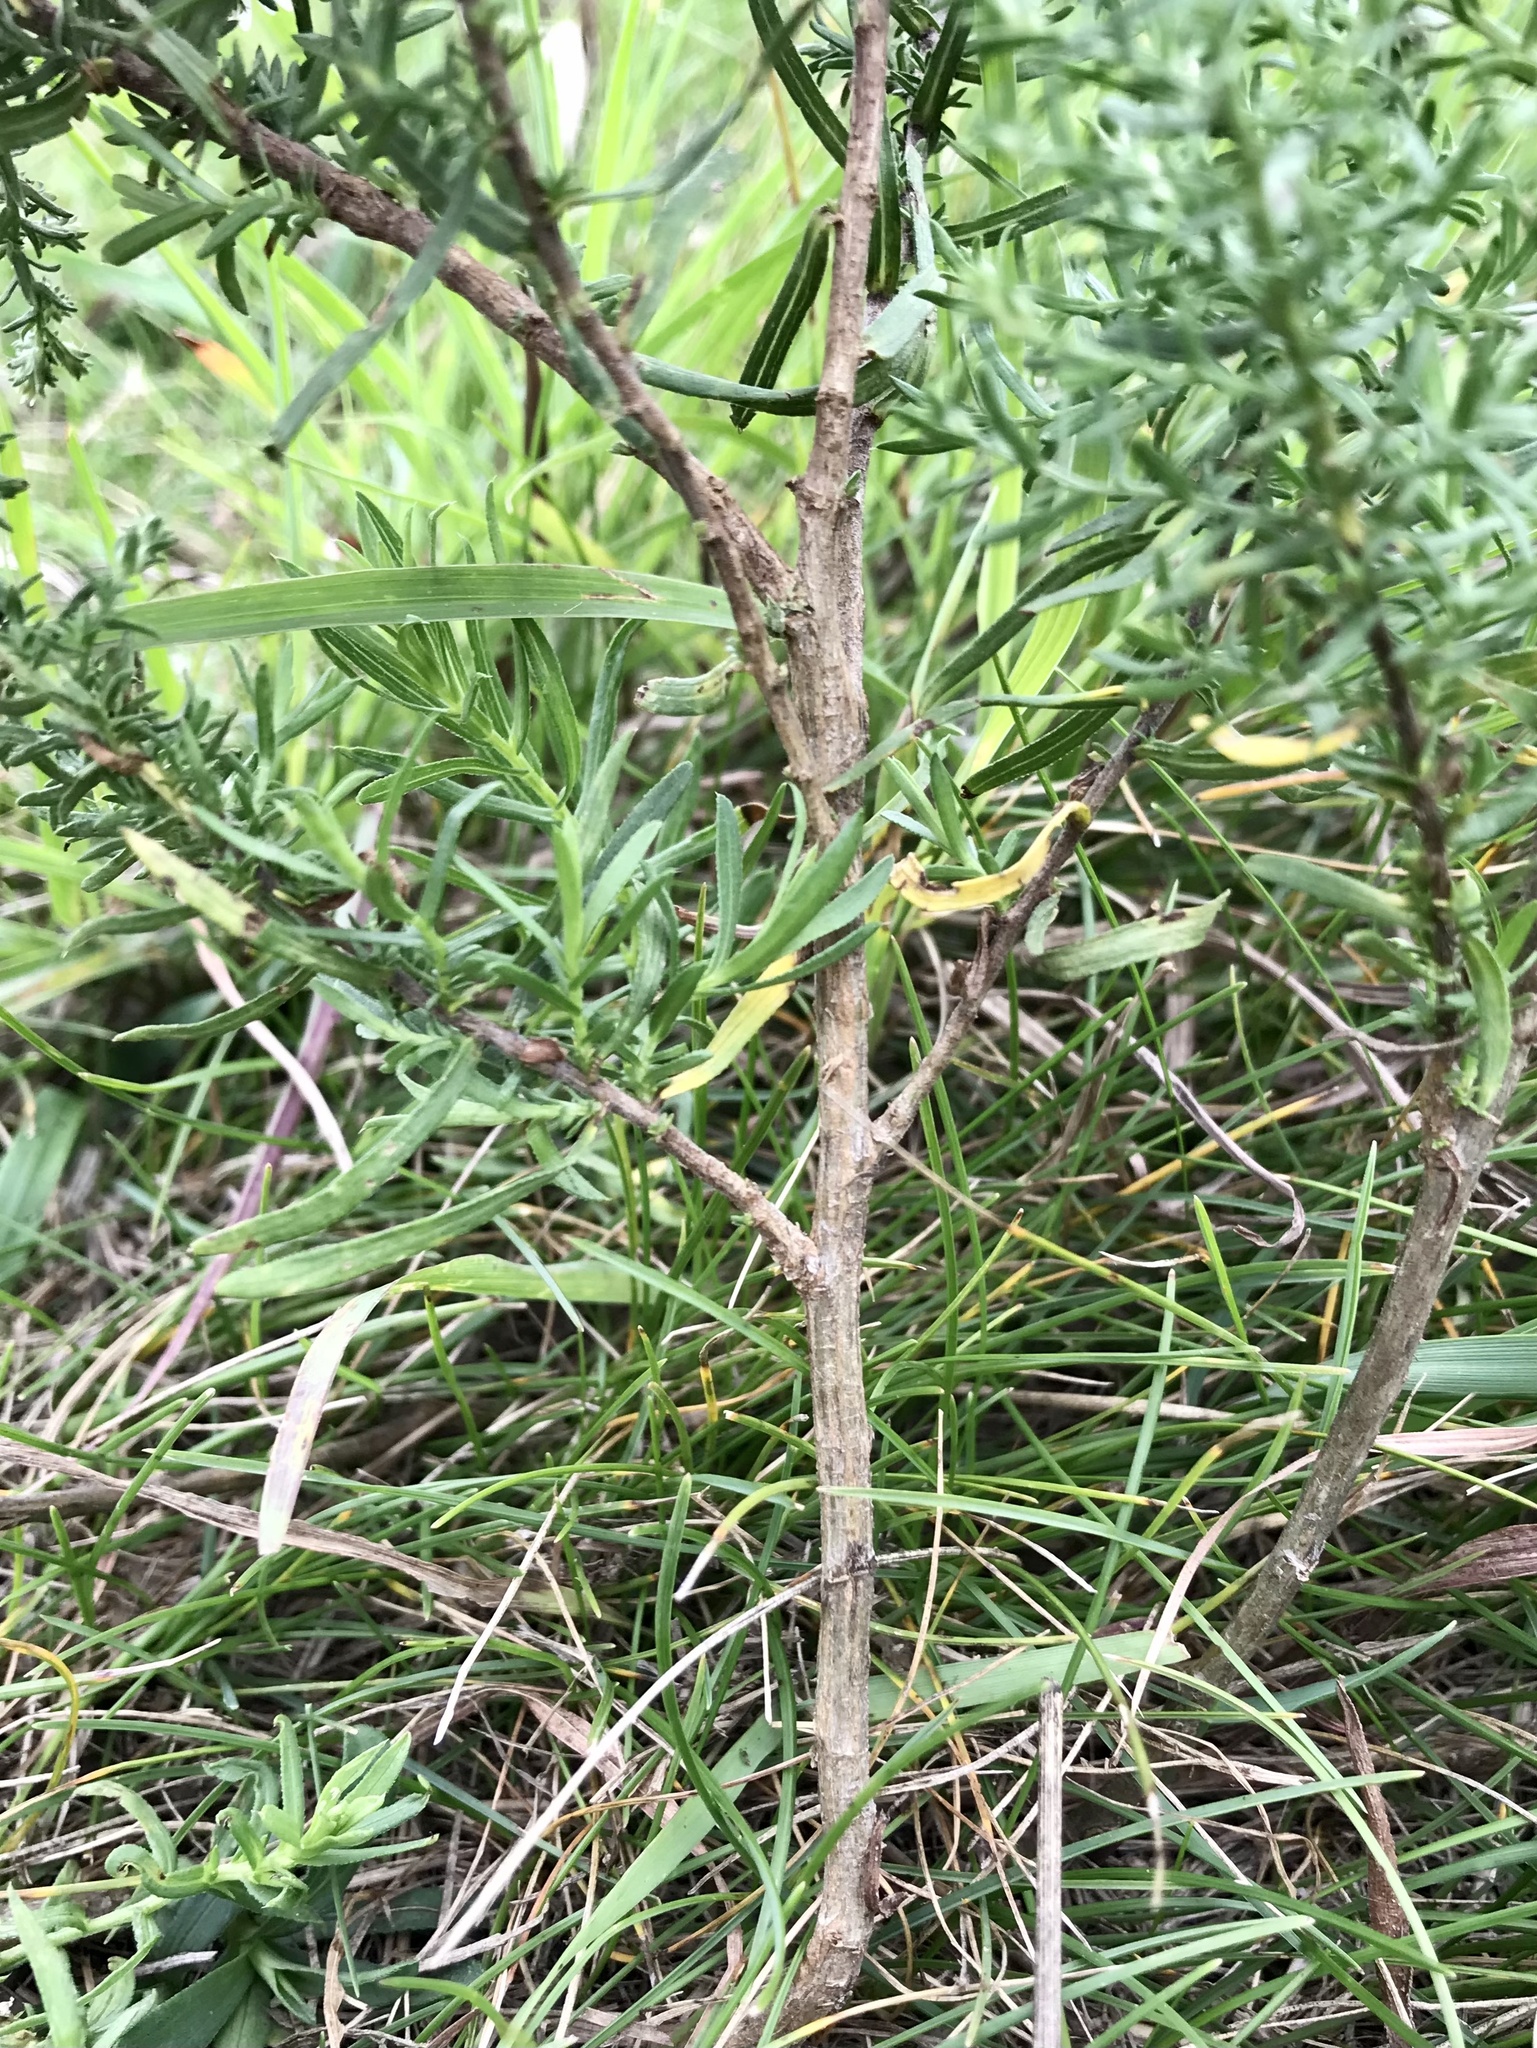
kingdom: Plantae
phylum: Tracheophyta
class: Magnoliopsida
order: Asterales
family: Asteraceae
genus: Symphyotrichum
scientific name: Symphyotrichum ericoides
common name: Heath aster
